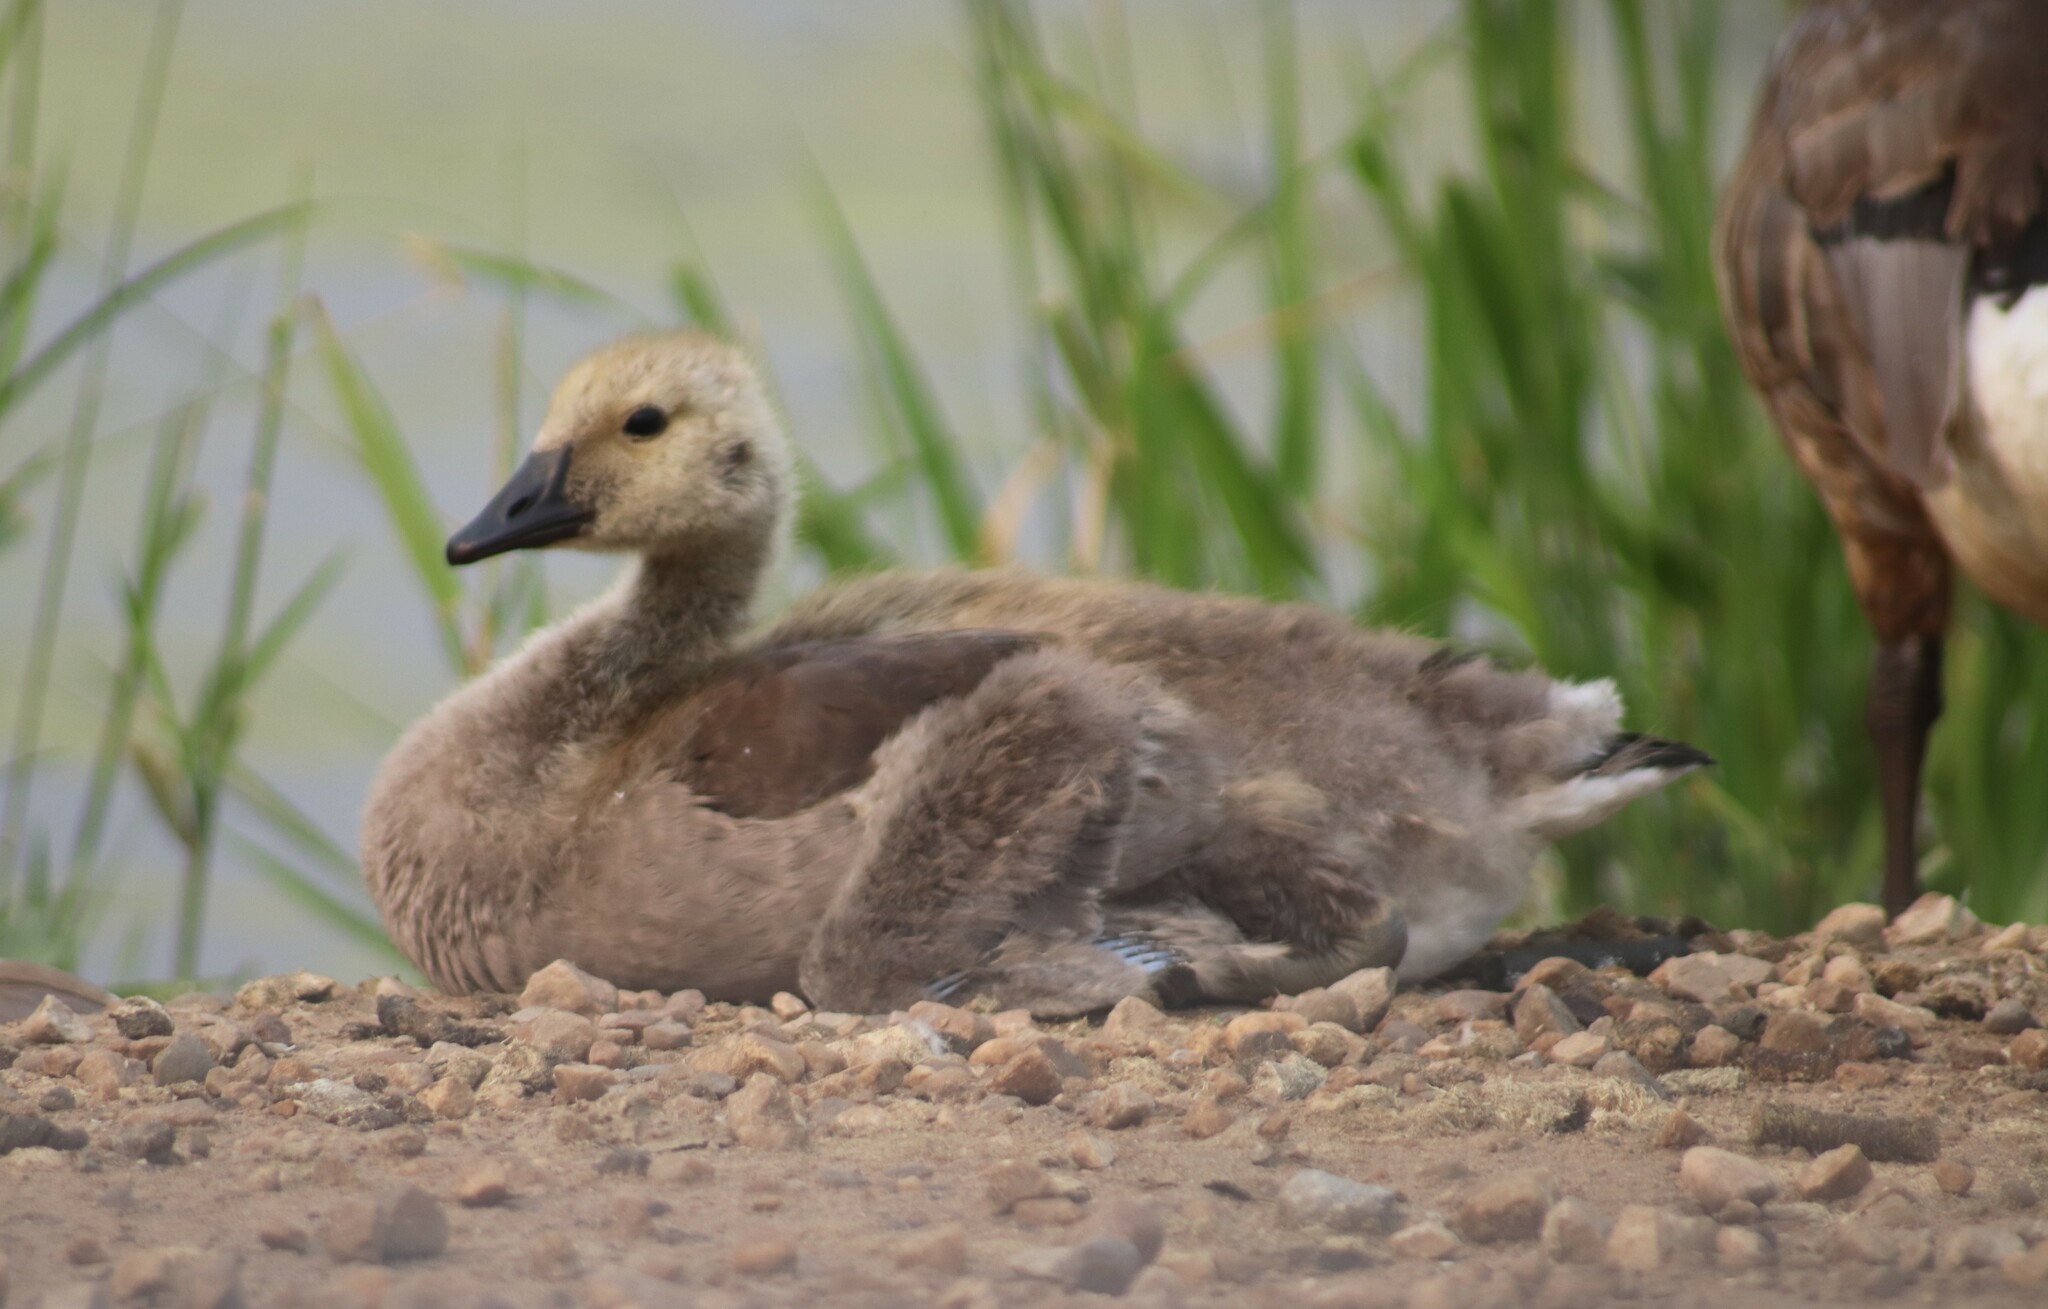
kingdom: Animalia
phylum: Chordata
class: Aves
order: Anseriformes
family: Anatidae
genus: Branta
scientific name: Branta canadensis
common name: Canada goose
